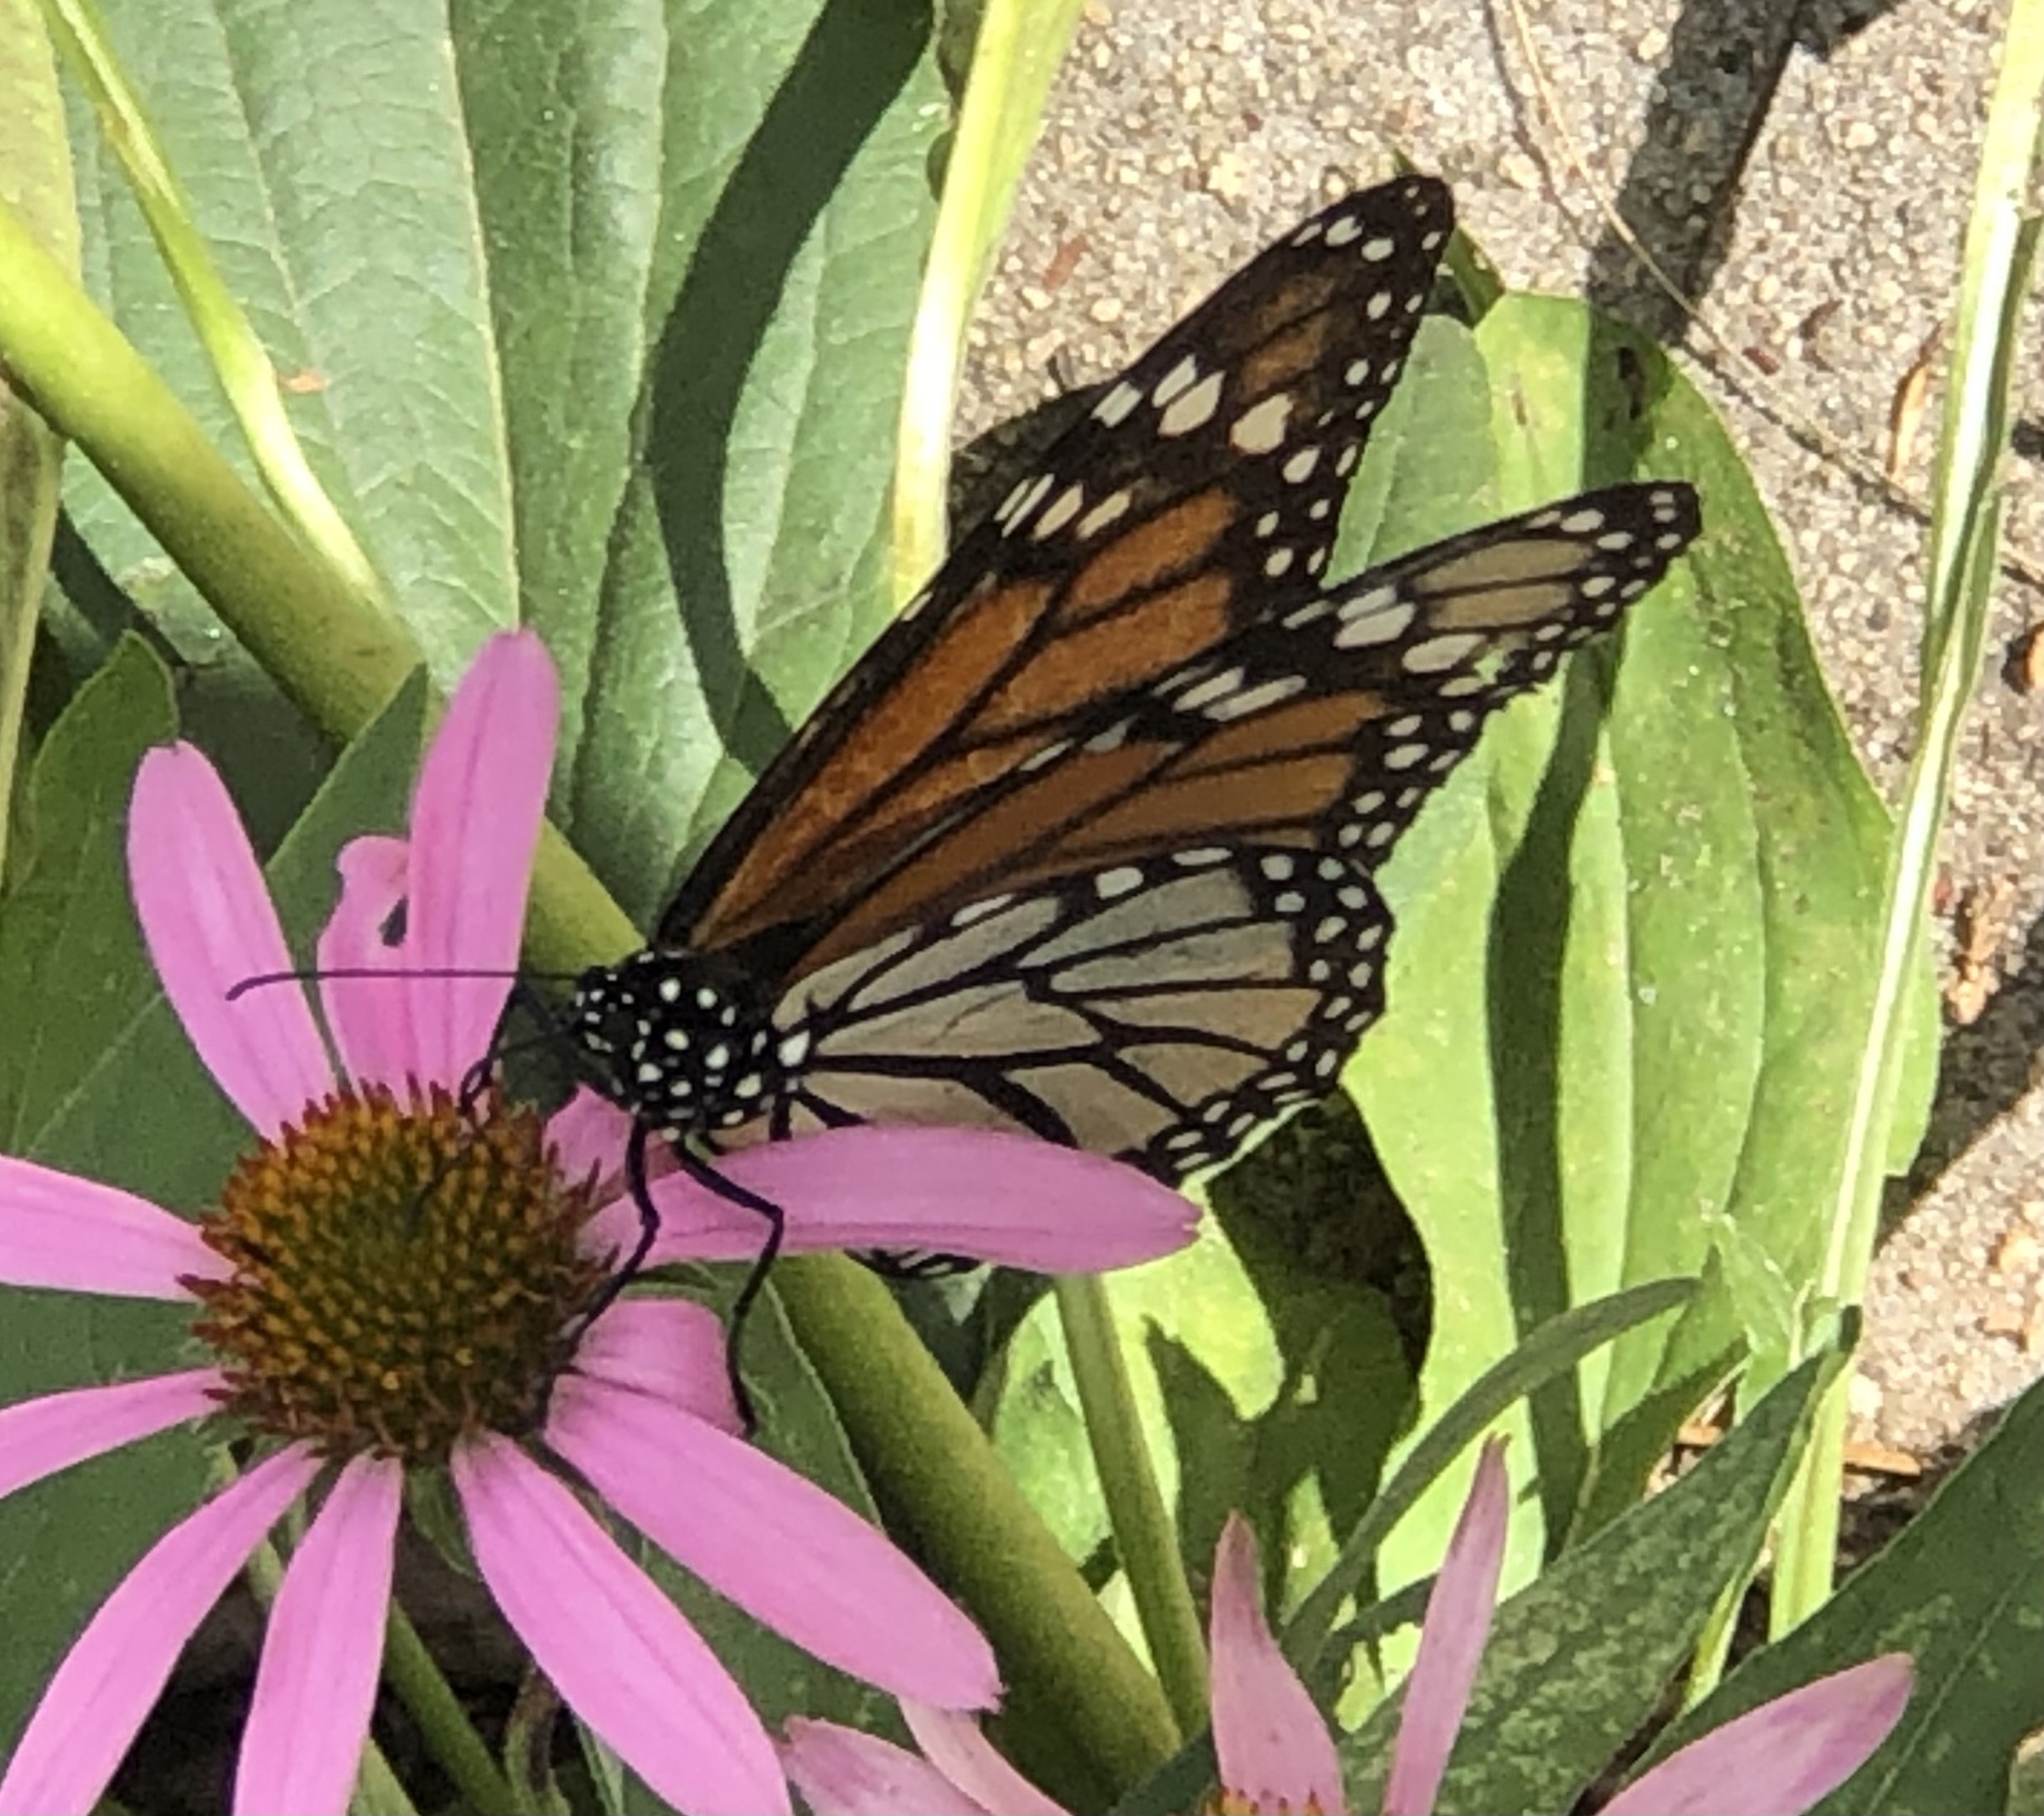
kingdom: Animalia
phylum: Arthropoda
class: Insecta
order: Lepidoptera
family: Nymphalidae
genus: Danaus
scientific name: Danaus plexippus
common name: Monarch
